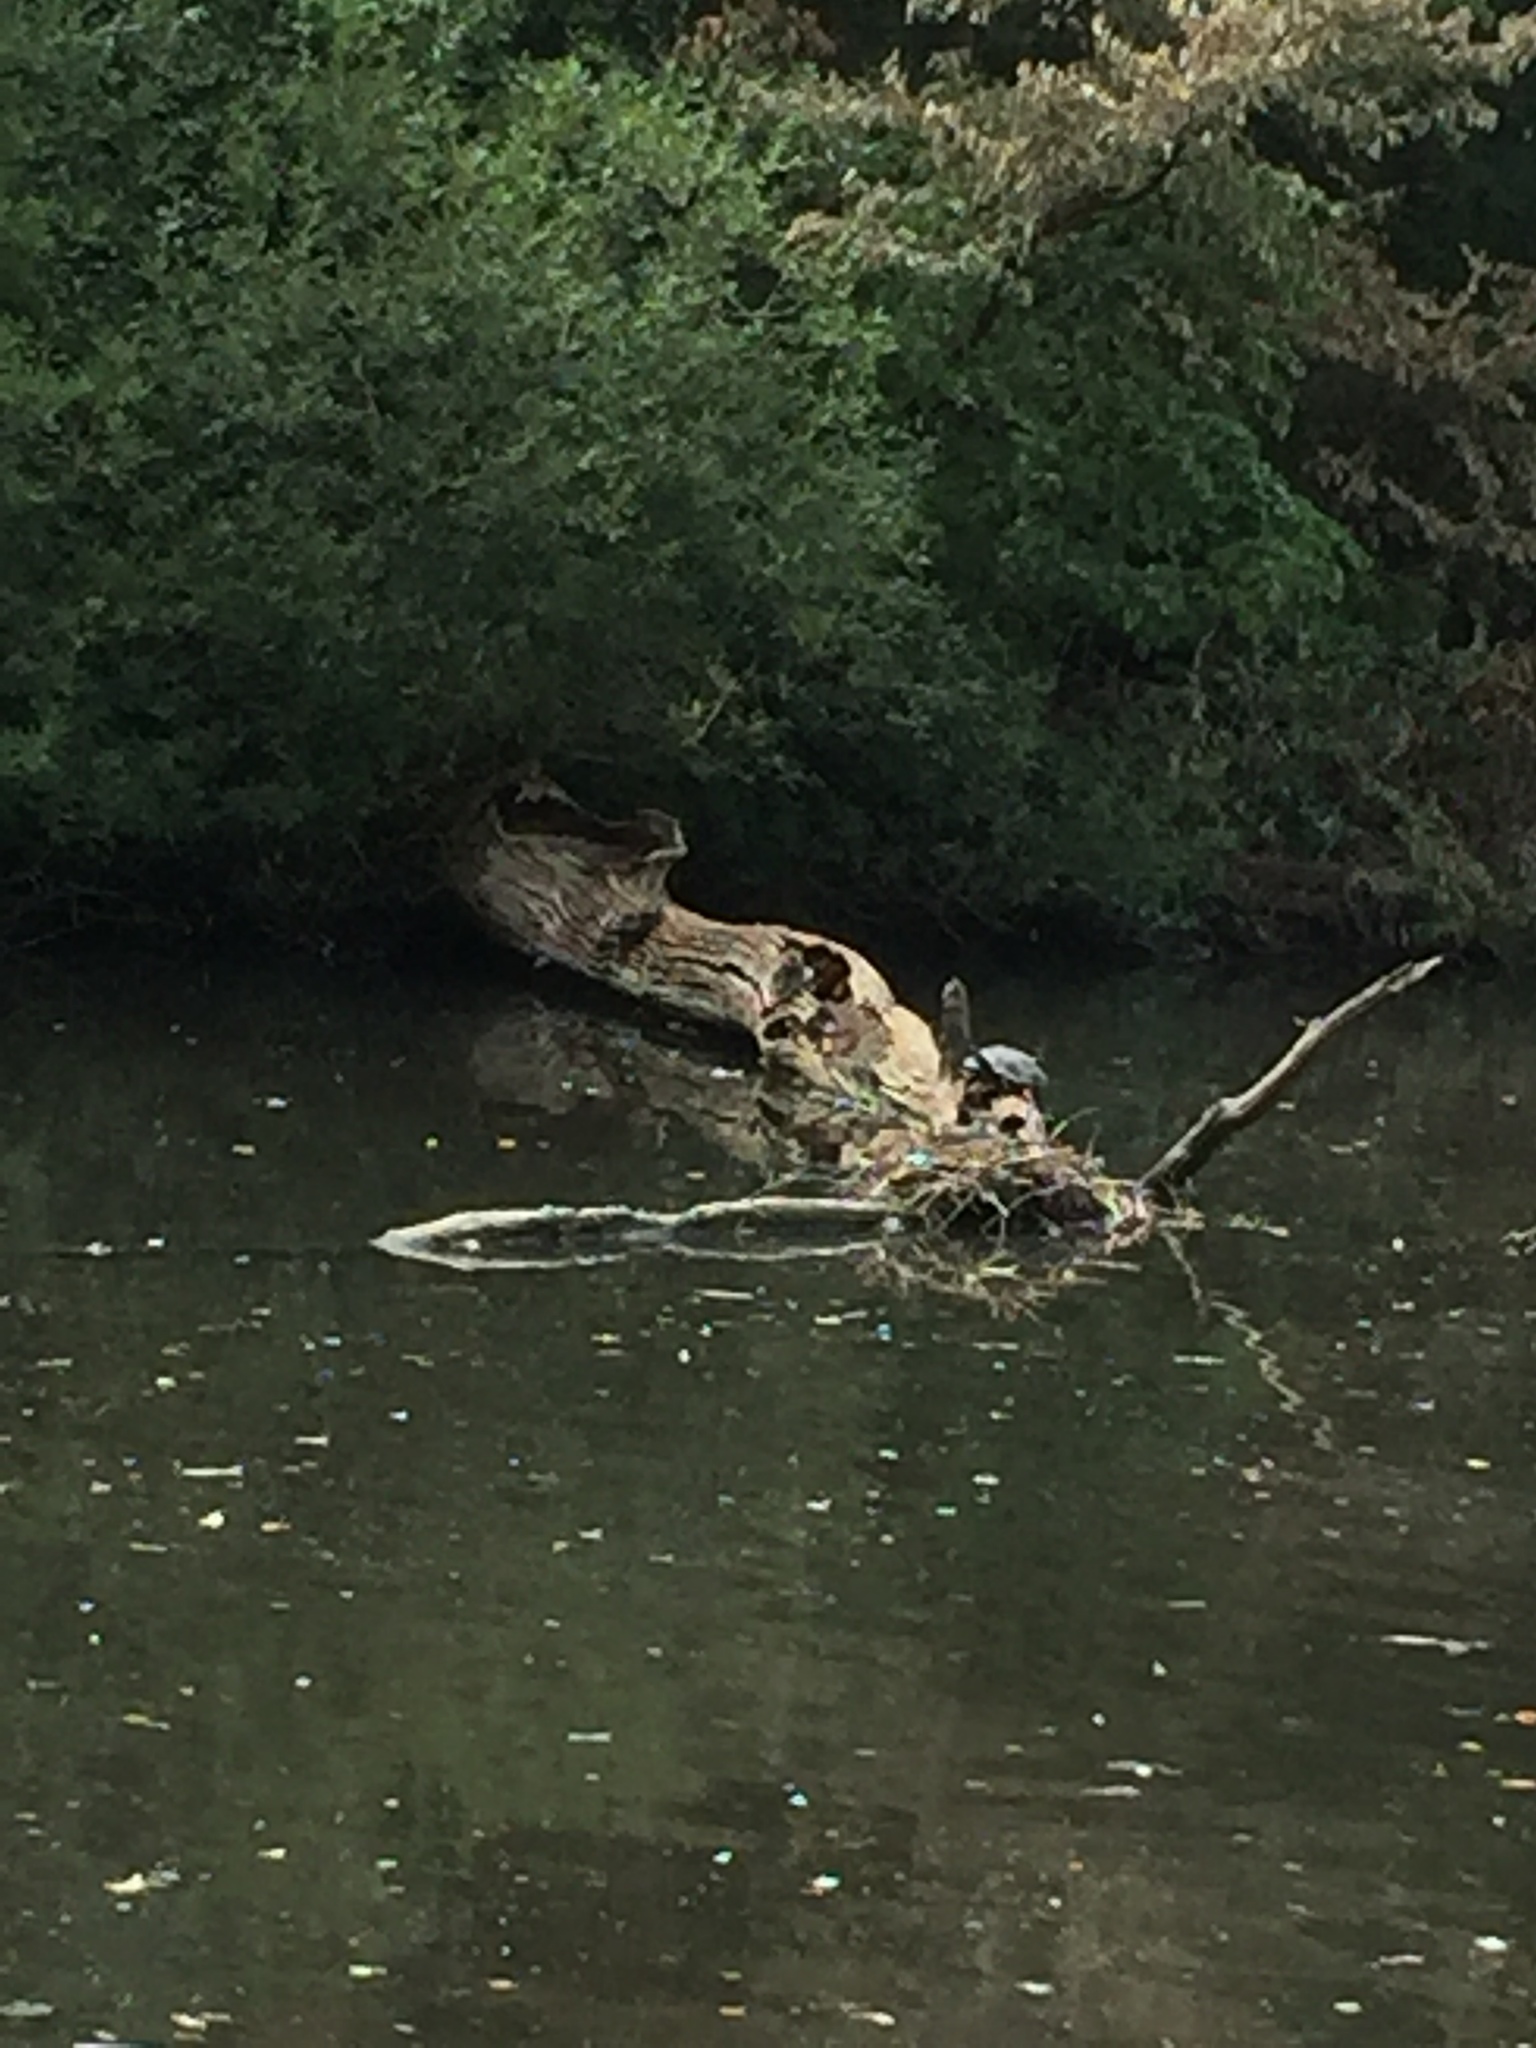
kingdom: Animalia
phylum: Chordata
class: Testudines
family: Emydidae
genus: Trachemys
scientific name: Trachemys scripta
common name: Slider
